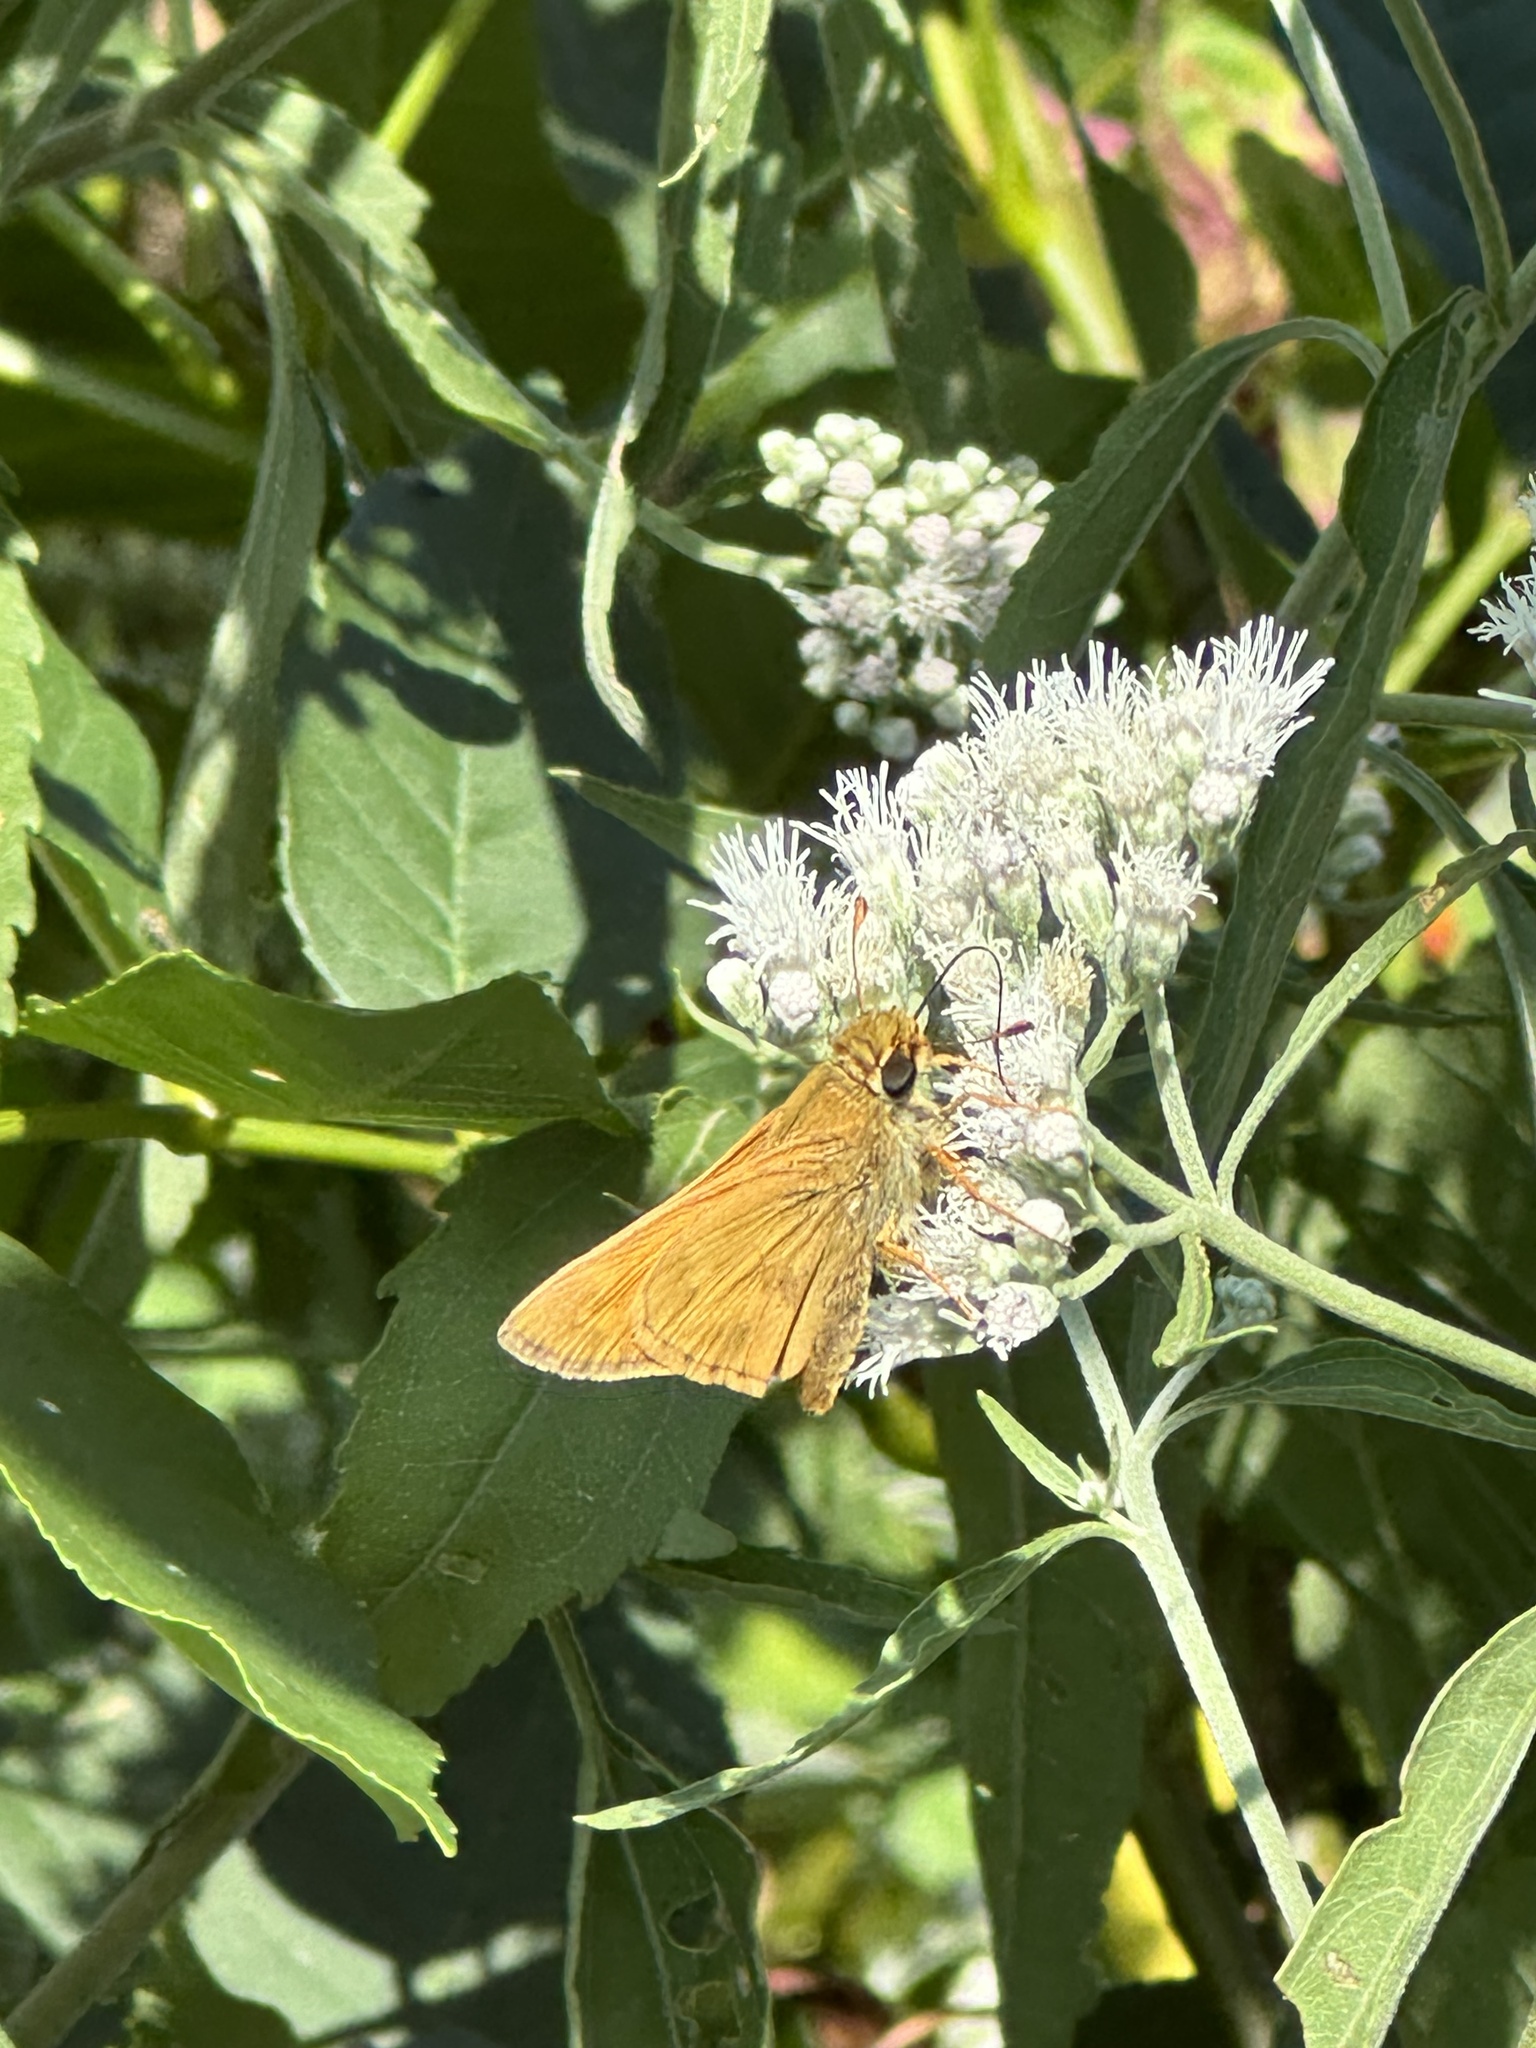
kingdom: Animalia
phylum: Arthropoda
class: Insecta
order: Lepidoptera
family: Hesperiidae
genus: Atalopedes
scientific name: Atalopedes
